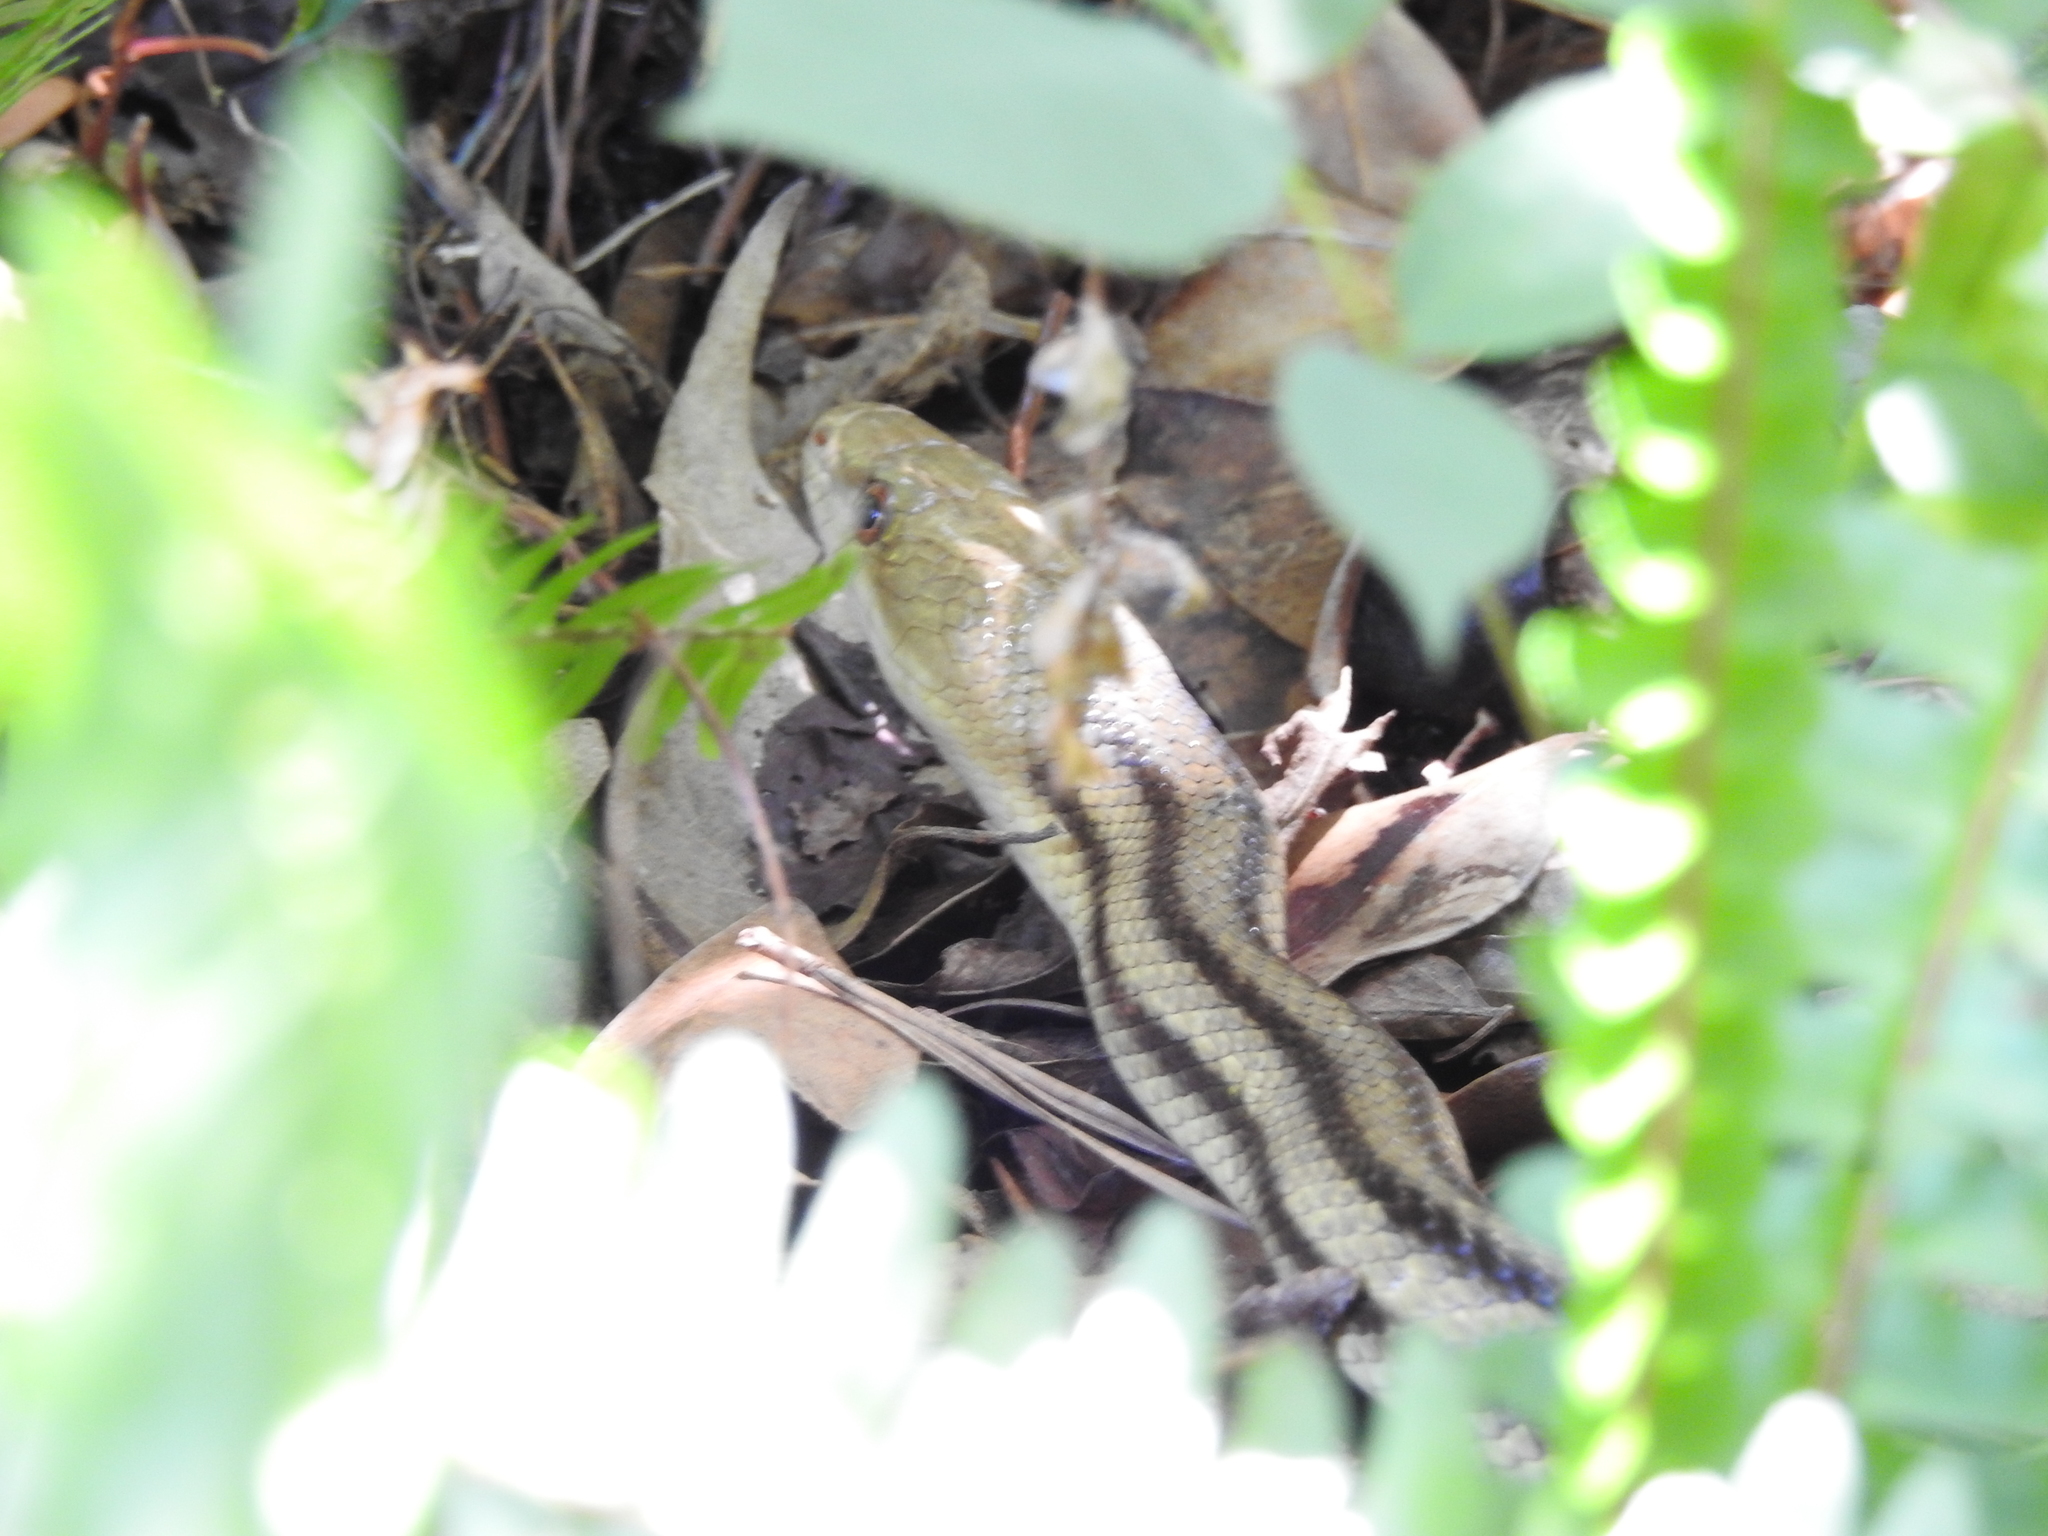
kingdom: Animalia
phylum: Chordata
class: Squamata
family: Colubridae
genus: Pantherophis
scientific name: Pantherophis alleghaniensis
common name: Eastern rat snake
